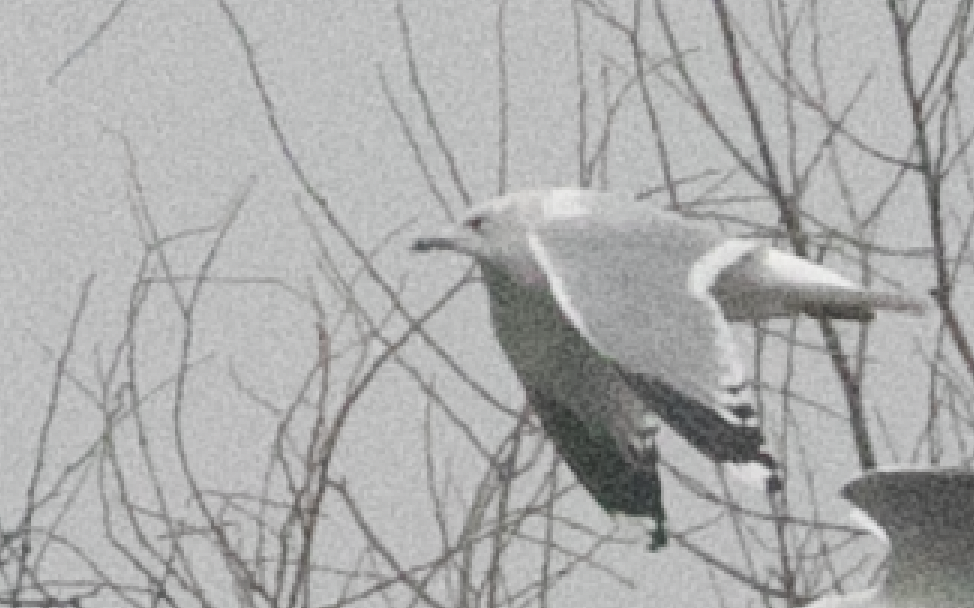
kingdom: Animalia
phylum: Chordata
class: Aves
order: Charadriiformes
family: Laridae
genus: Larus
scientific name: Larus canus
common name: Mew gull
